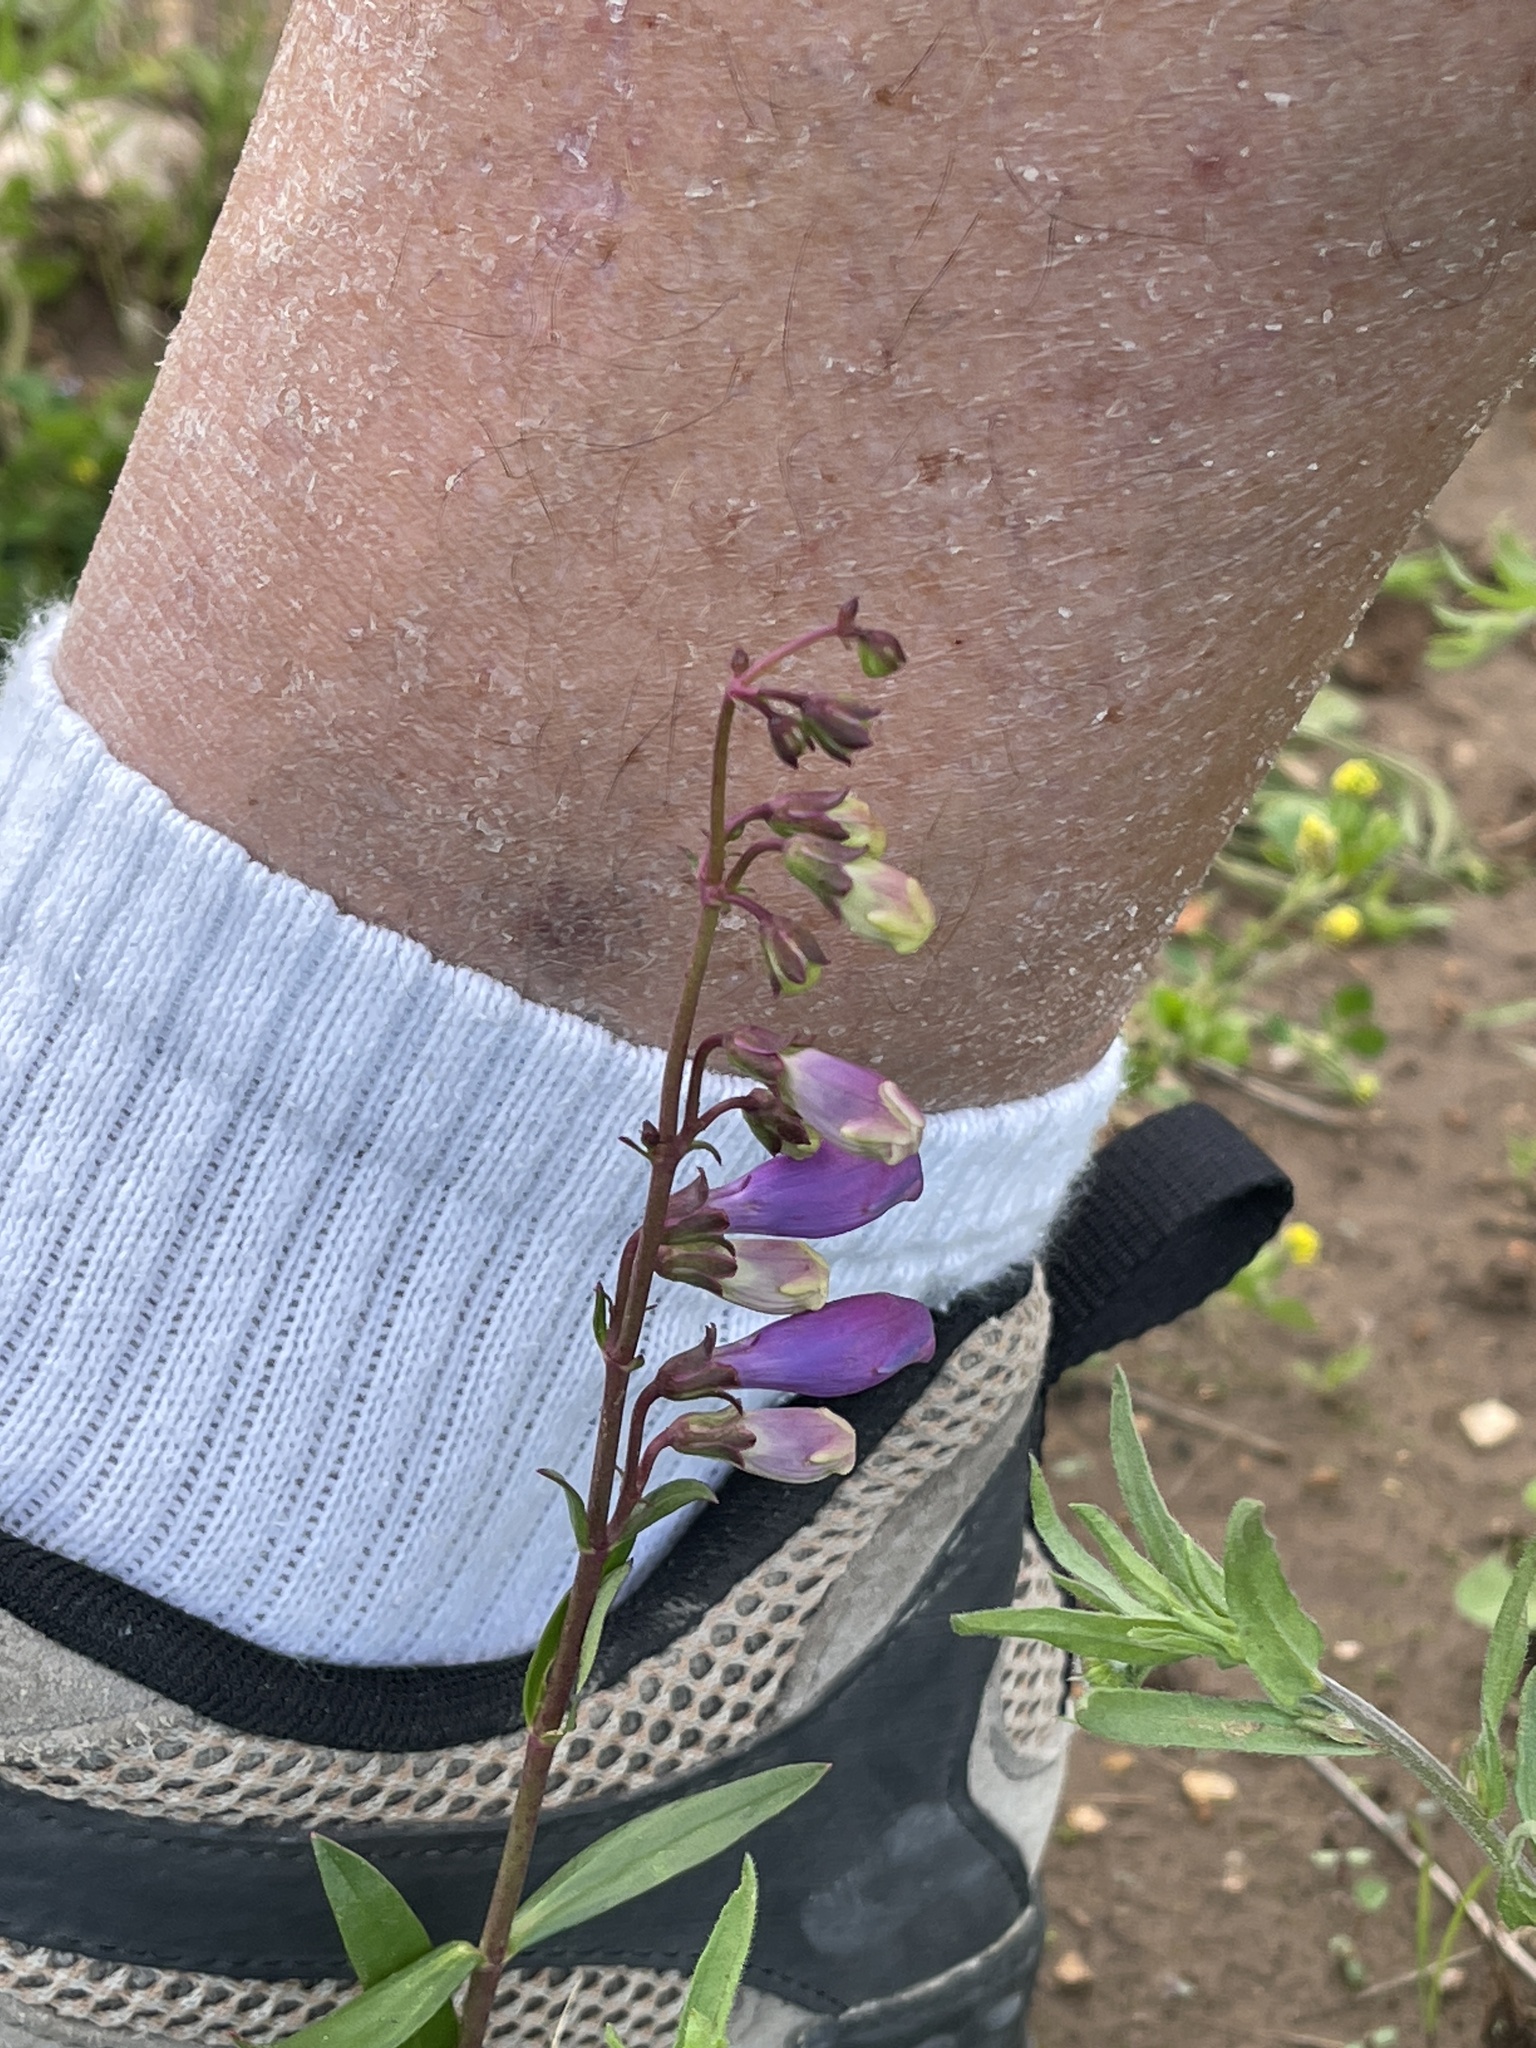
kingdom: Plantae
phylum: Tracheophyta
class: Magnoliopsida
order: Lamiales
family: Plantaginaceae
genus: Penstemon
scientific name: Penstemon neomexicanus
